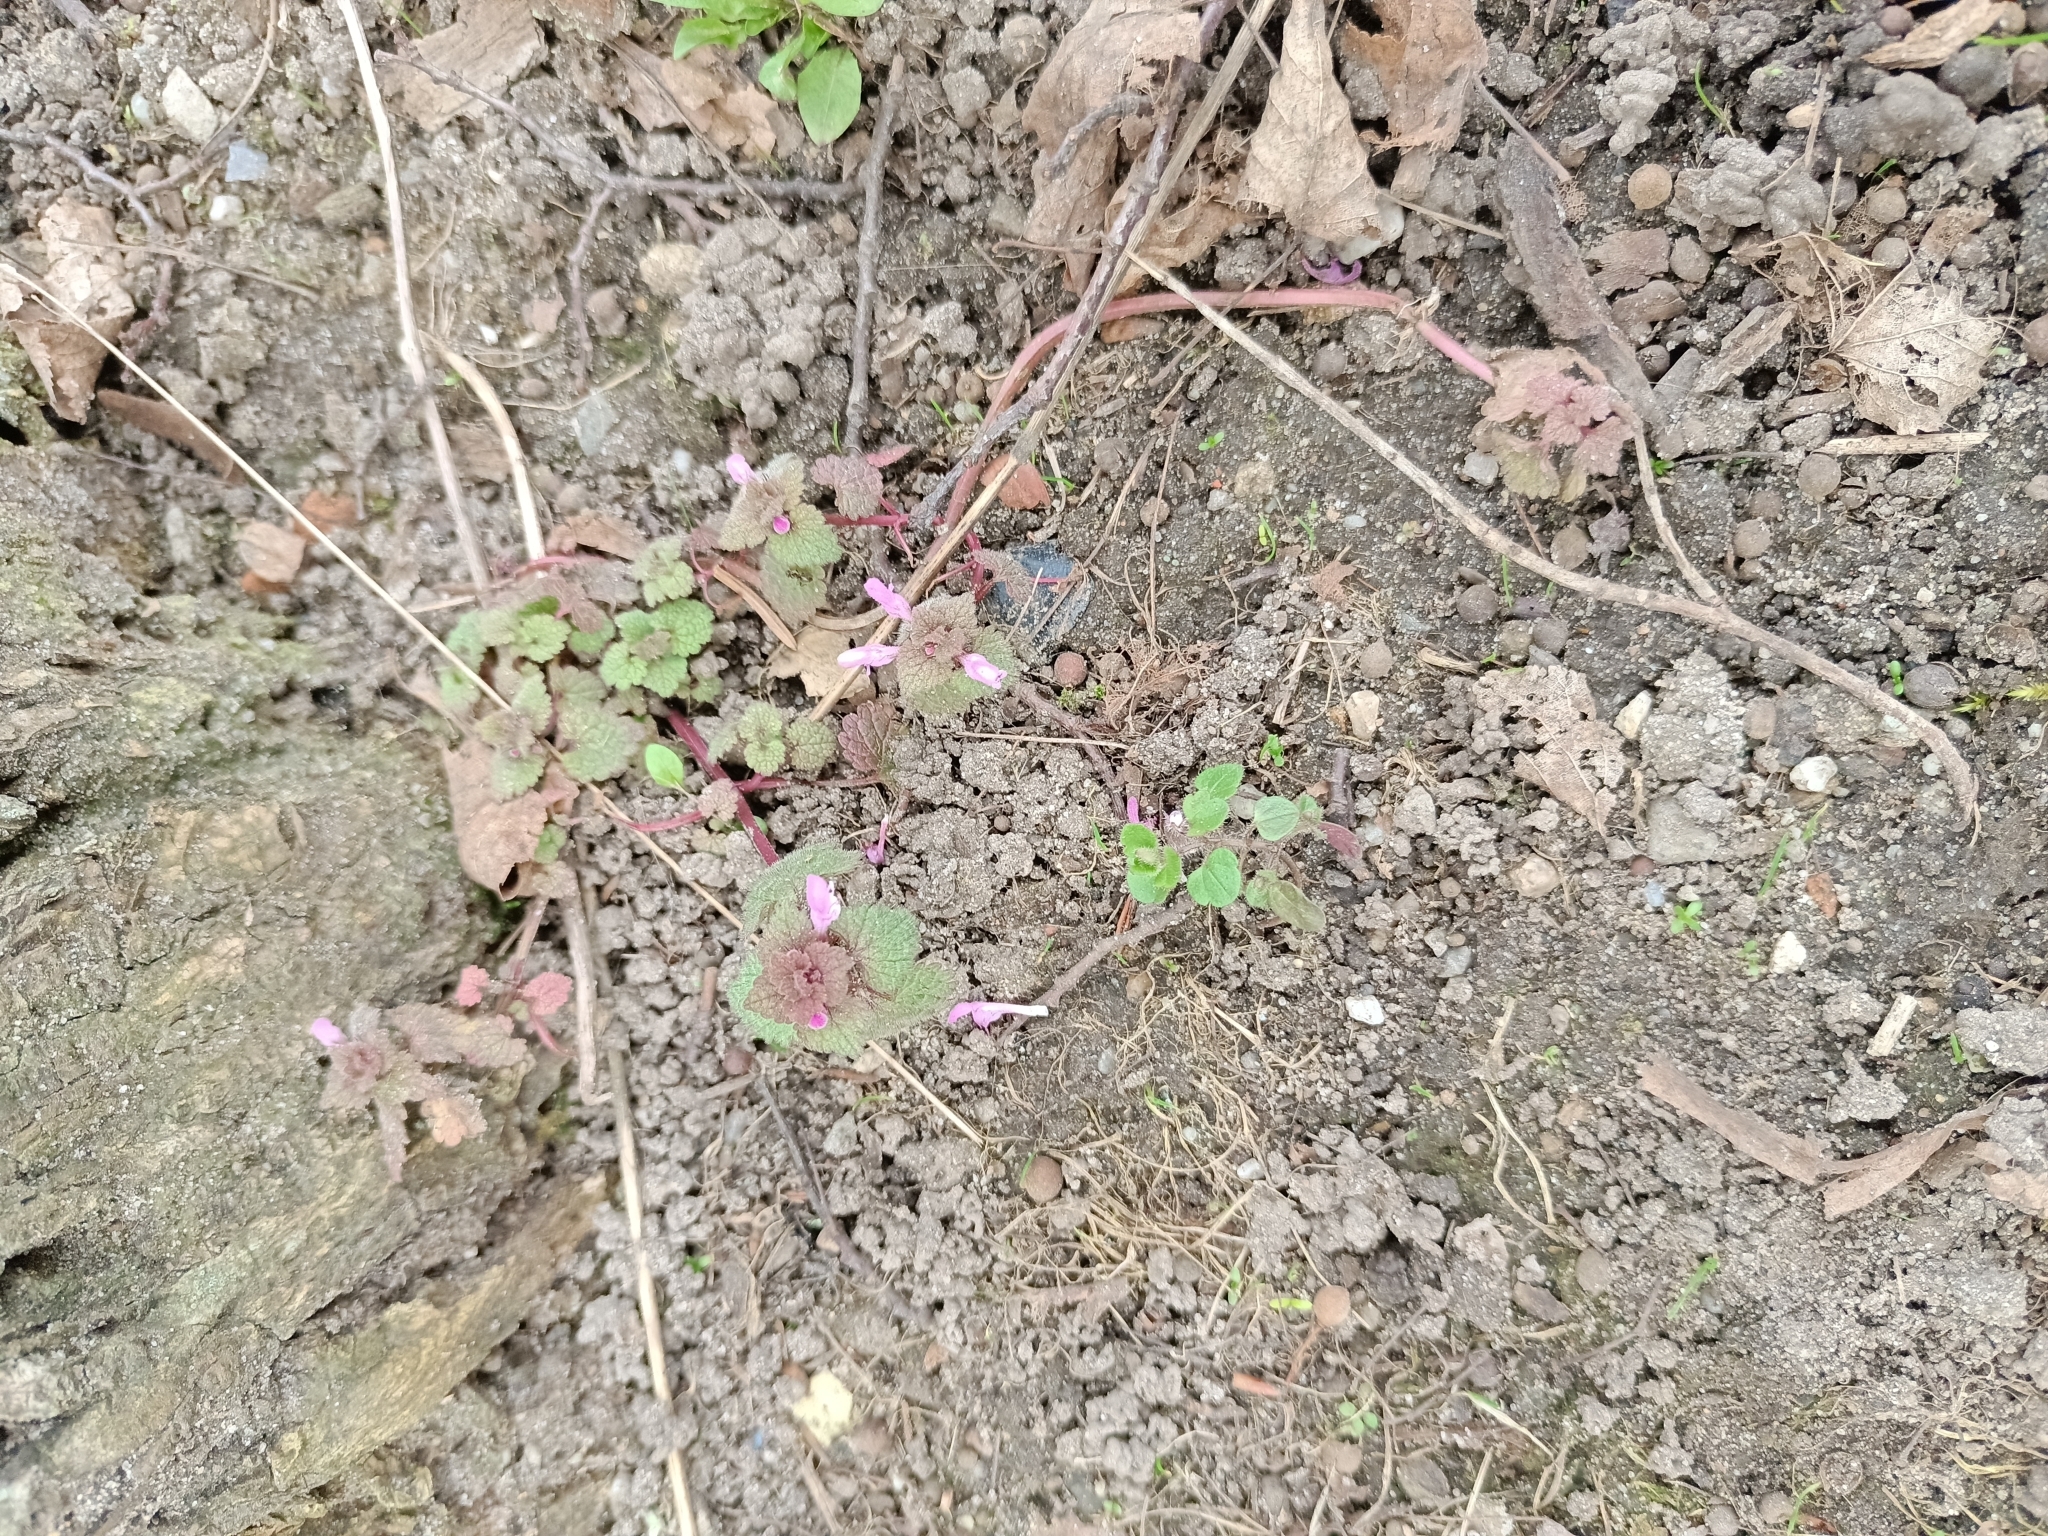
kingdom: Plantae
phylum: Tracheophyta
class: Magnoliopsida
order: Lamiales
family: Lamiaceae
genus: Lamium
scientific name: Lamium purpureum
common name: Red dead-nettle
